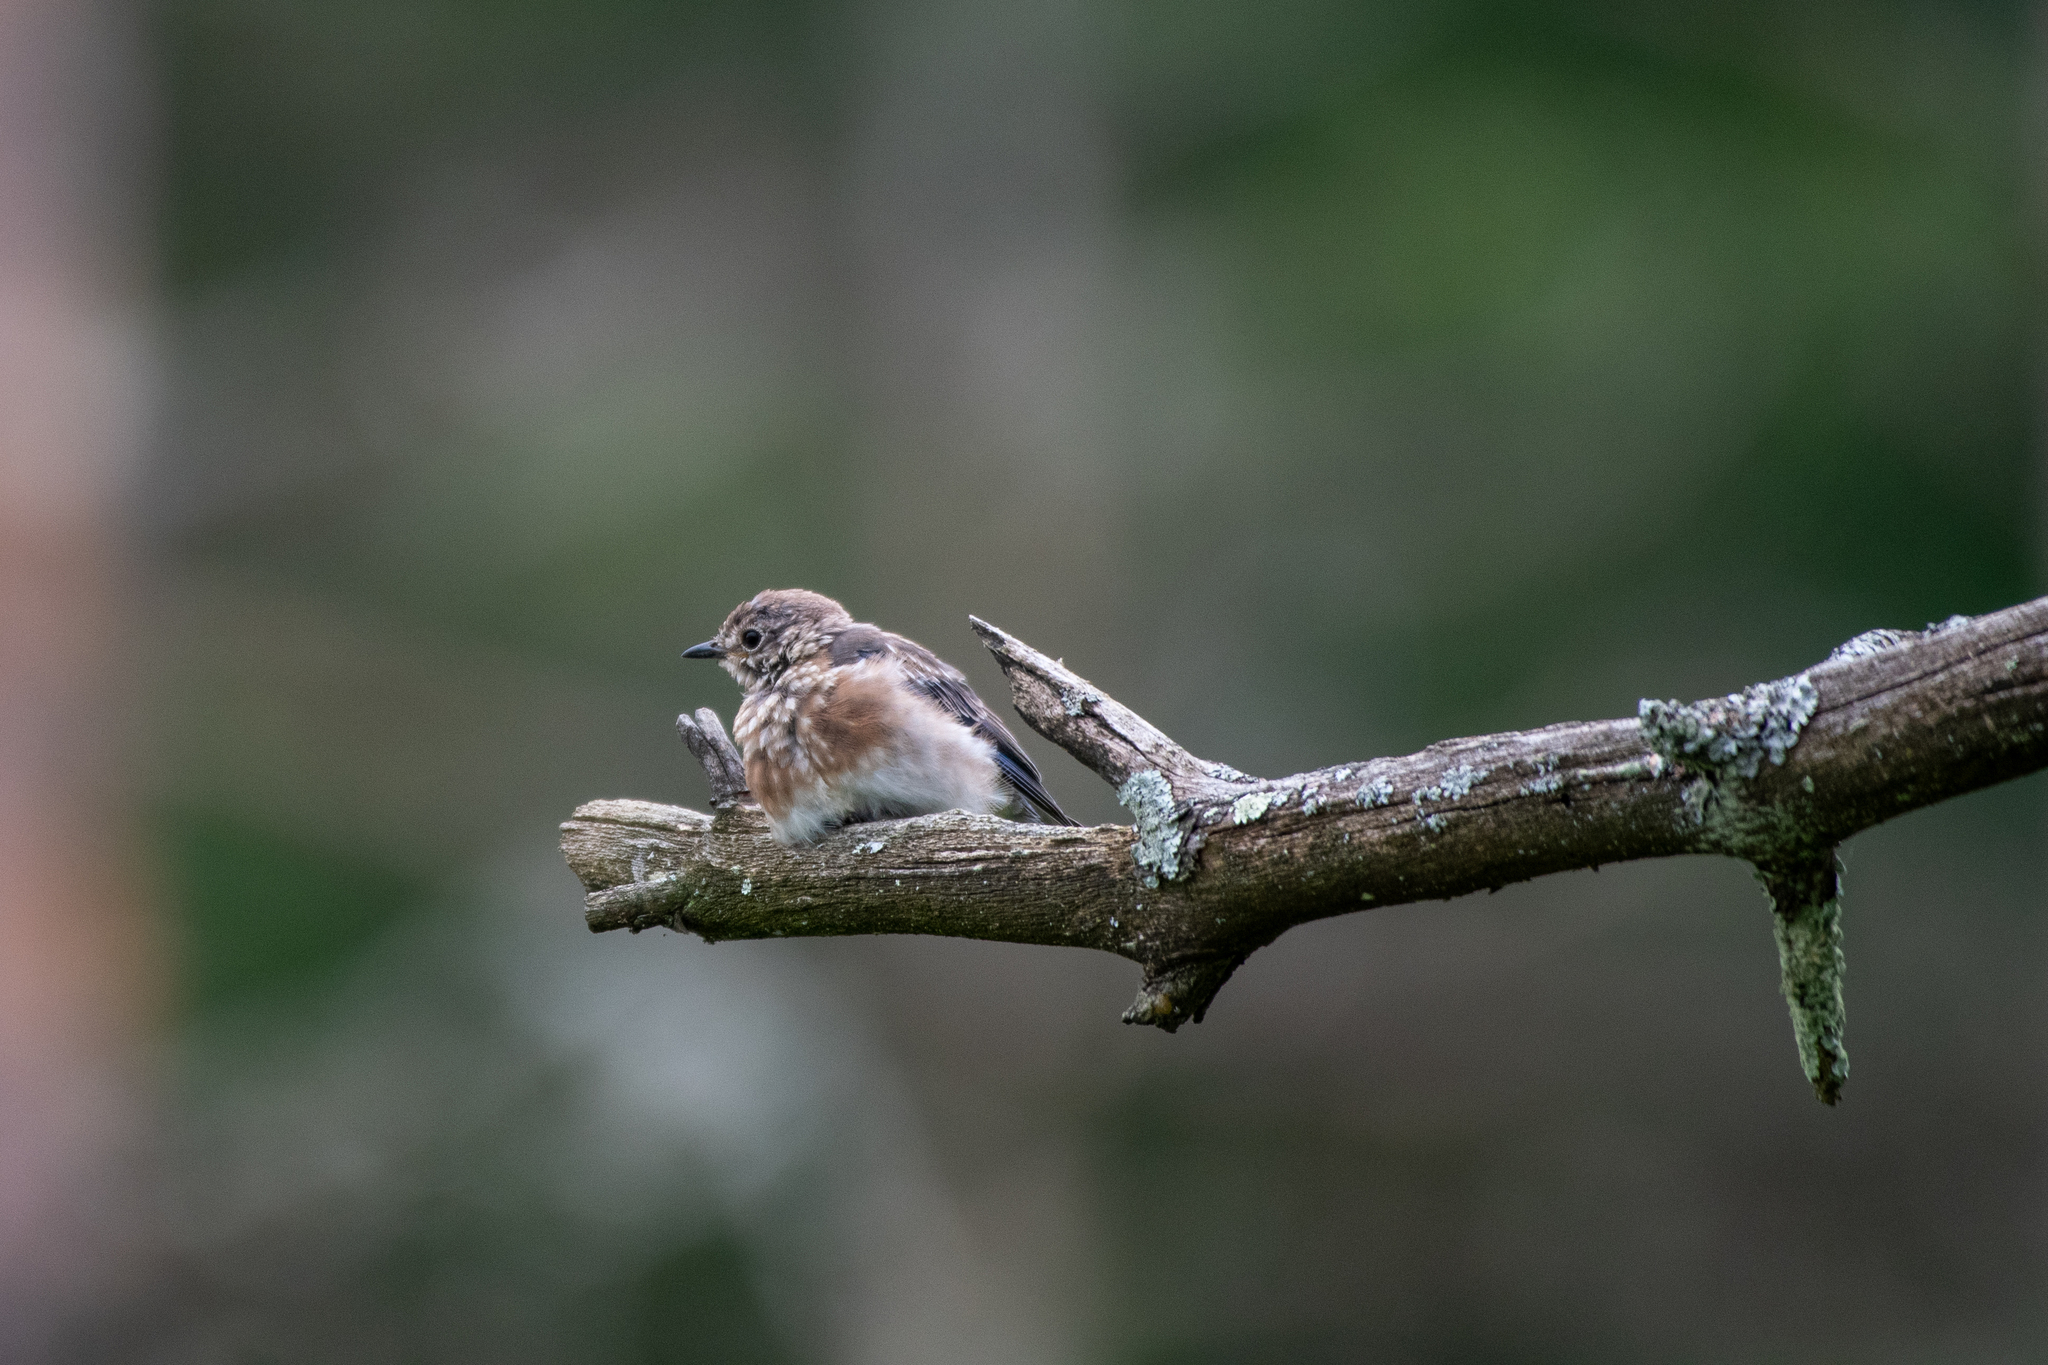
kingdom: Animalia
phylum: Chordata
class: Aves
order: Passeriformes
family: Turdidae
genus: Sialia
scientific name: Sialia sialis
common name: Eastern bluebird
